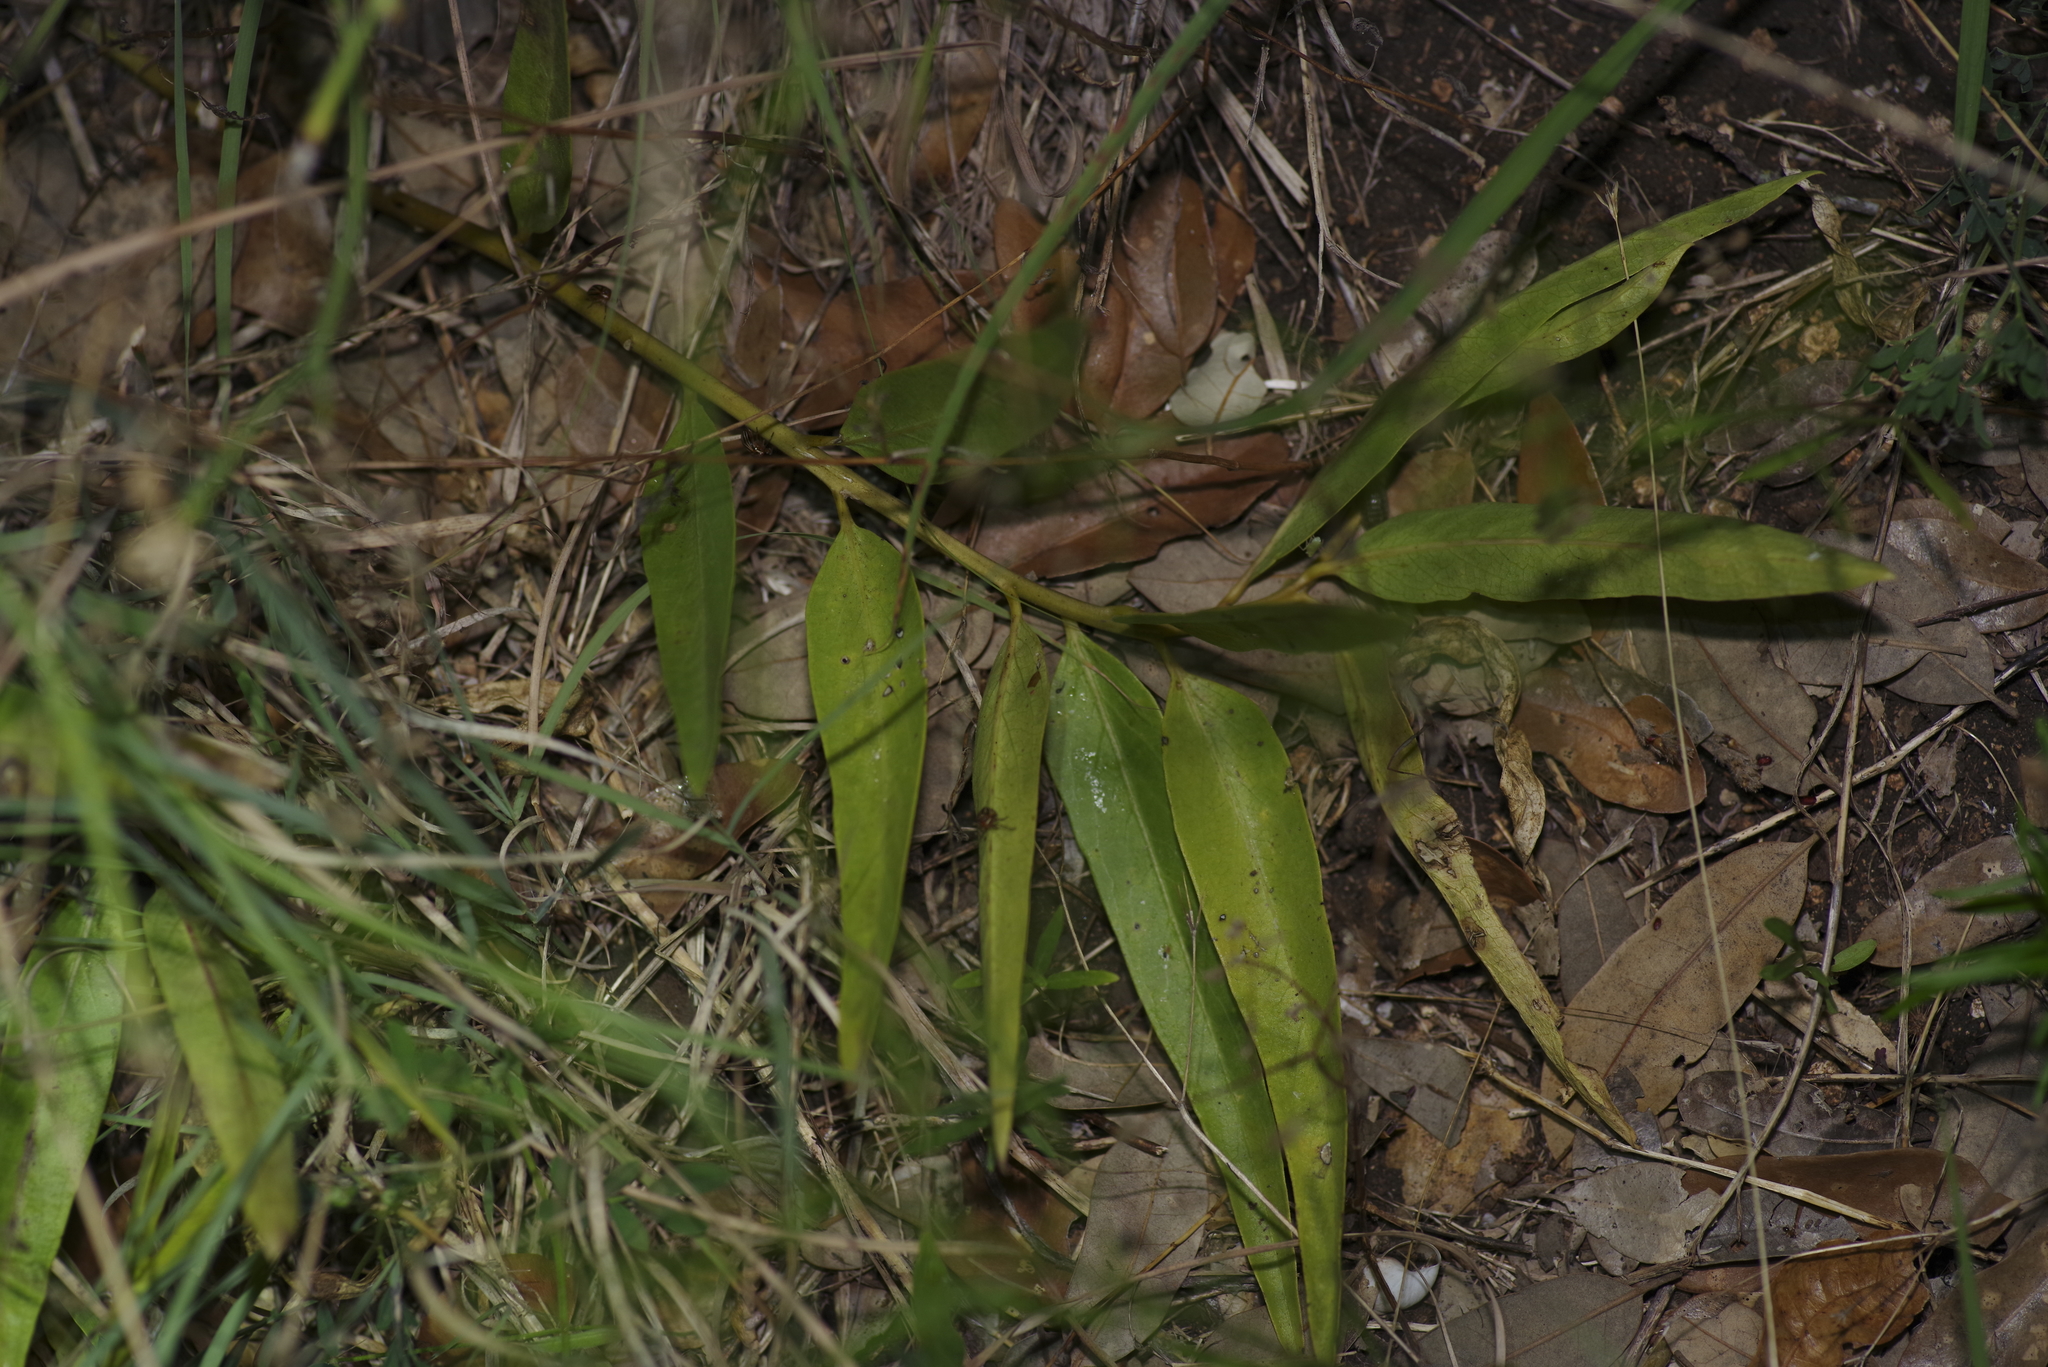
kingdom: Plantae
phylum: Tracheophyta
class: Magnoliopsida
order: Gentianales
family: Apocynaceae
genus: Asclepias
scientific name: Asclepias asperula
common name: Antelope horns
